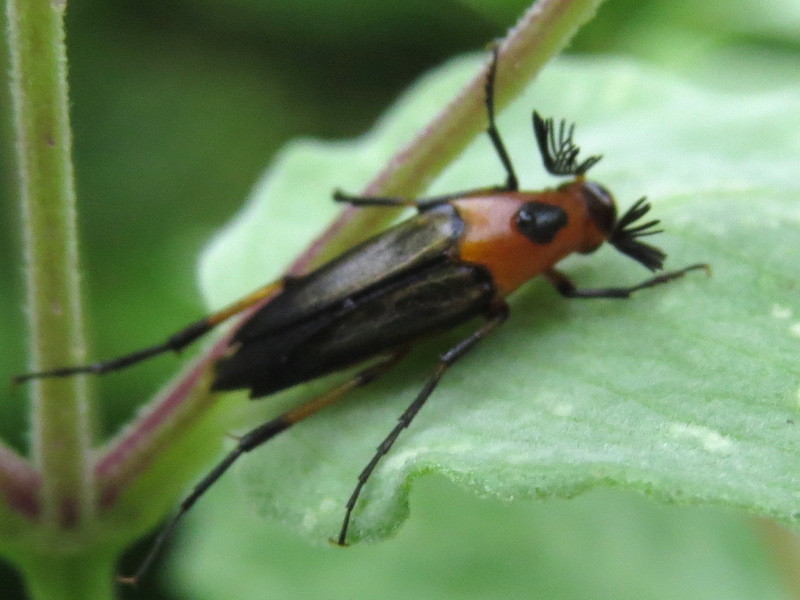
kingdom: Animalia
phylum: Arthropoda
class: Insecta
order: Coleoptera
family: Ripiphoridae
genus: Macrosiagon
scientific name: Macrosiagon limbatum
